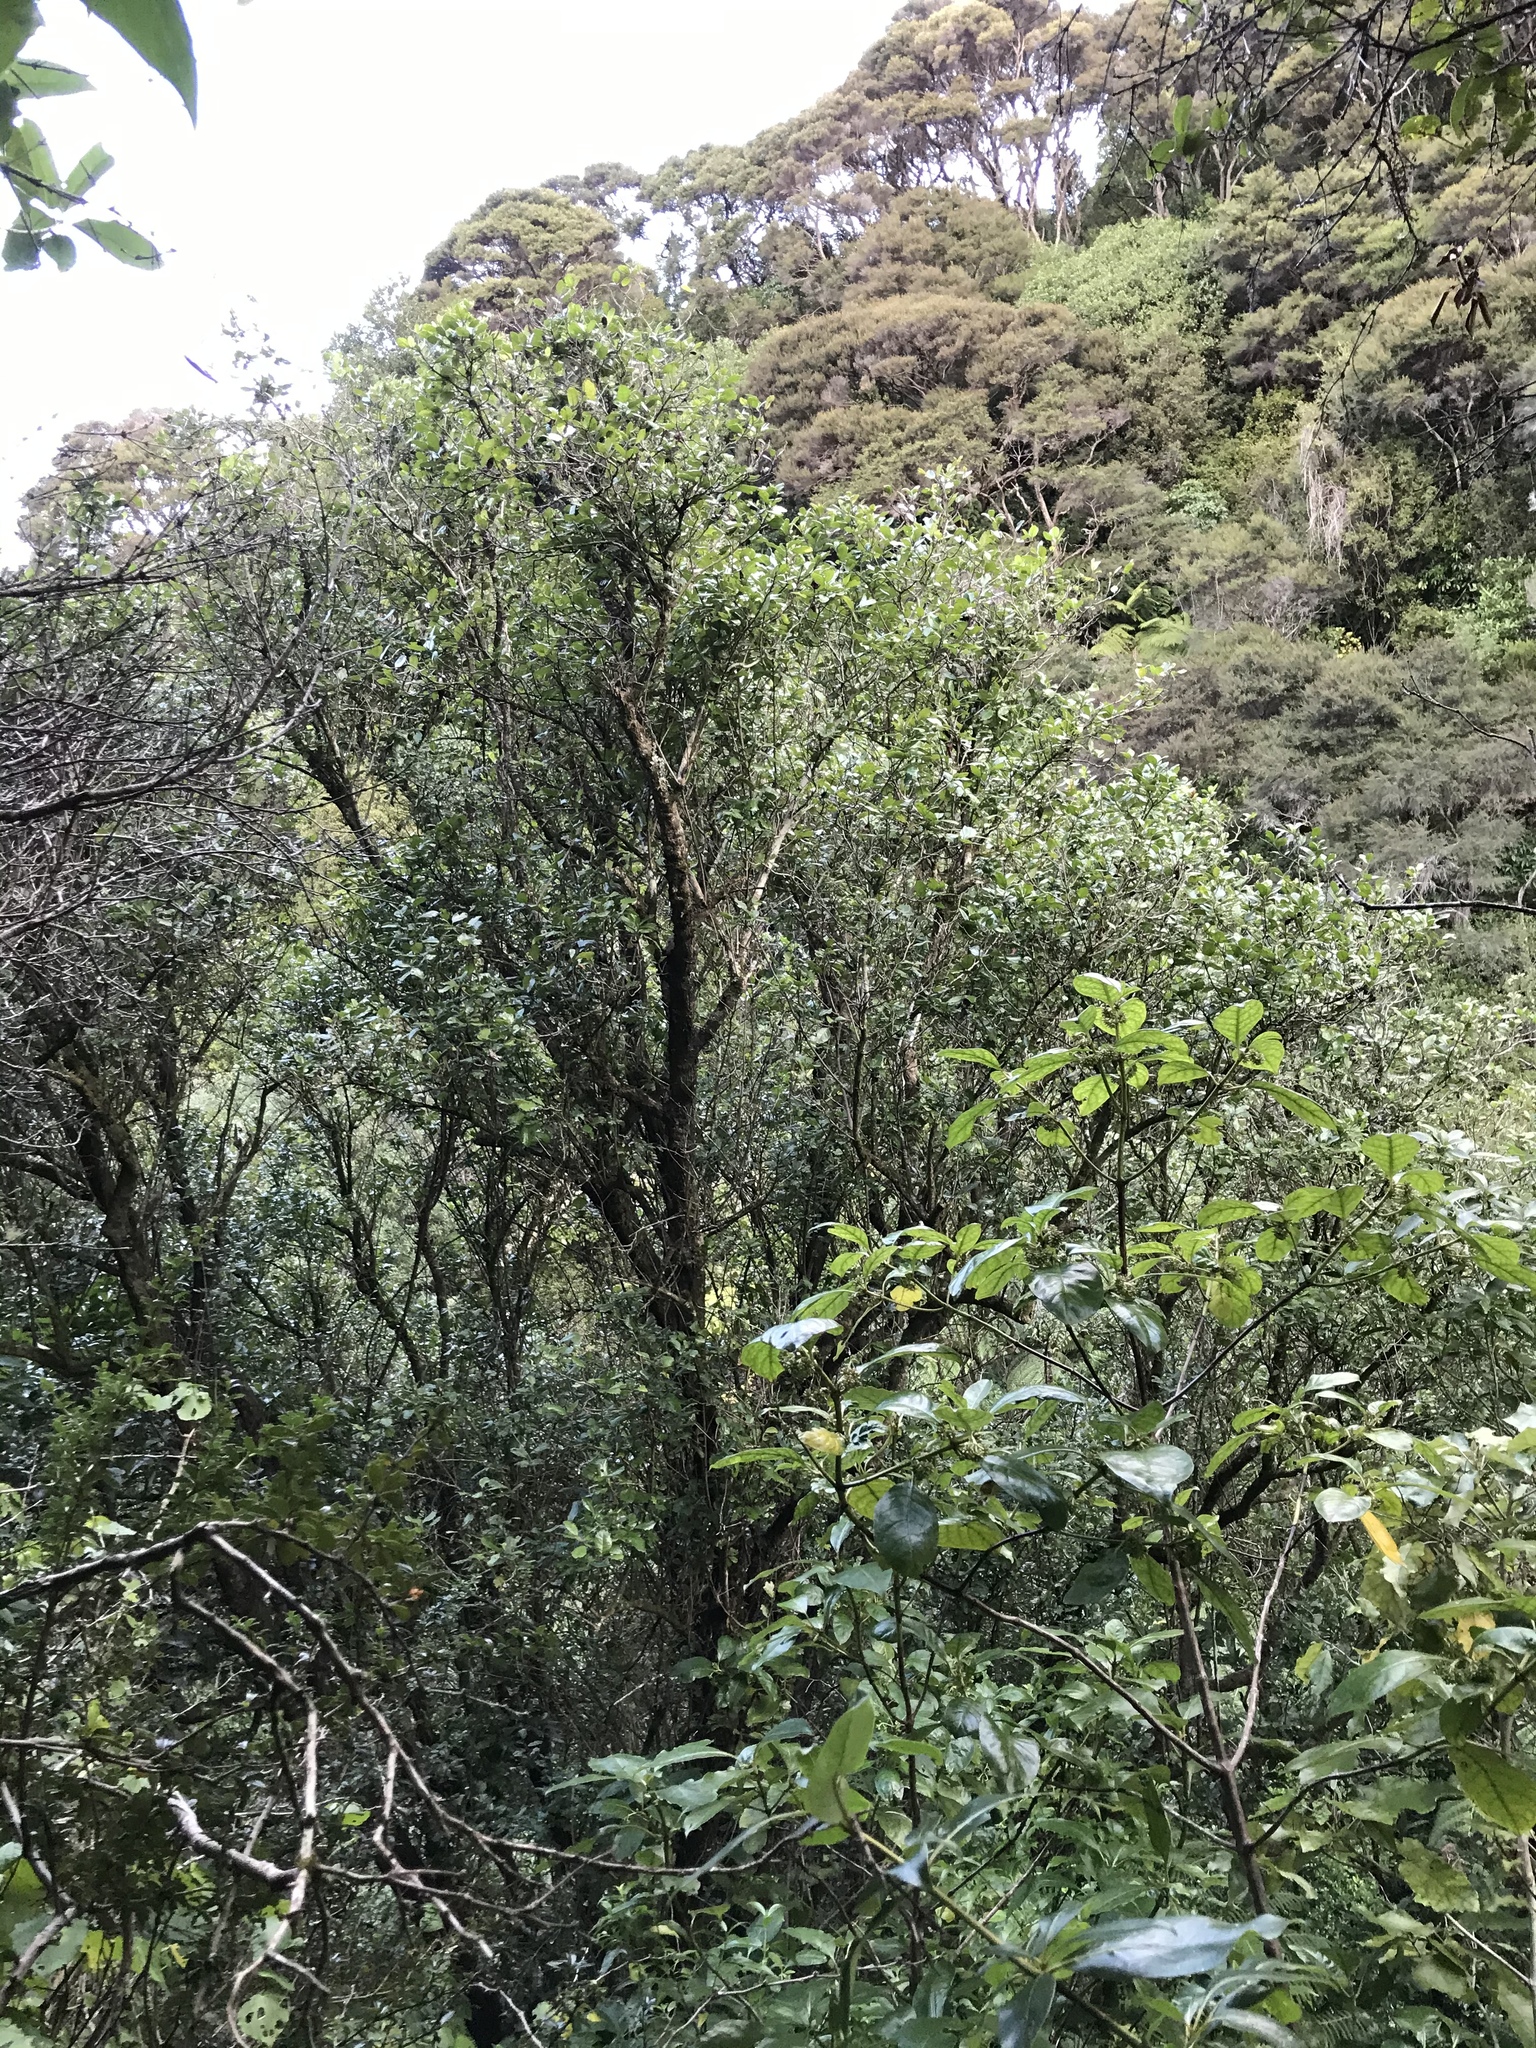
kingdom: Plantae
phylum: Tracheophyta
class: Magnoliopsida
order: Apiales
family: Pennantiaceae
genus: Pennantia
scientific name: Pennantia corymbosa
